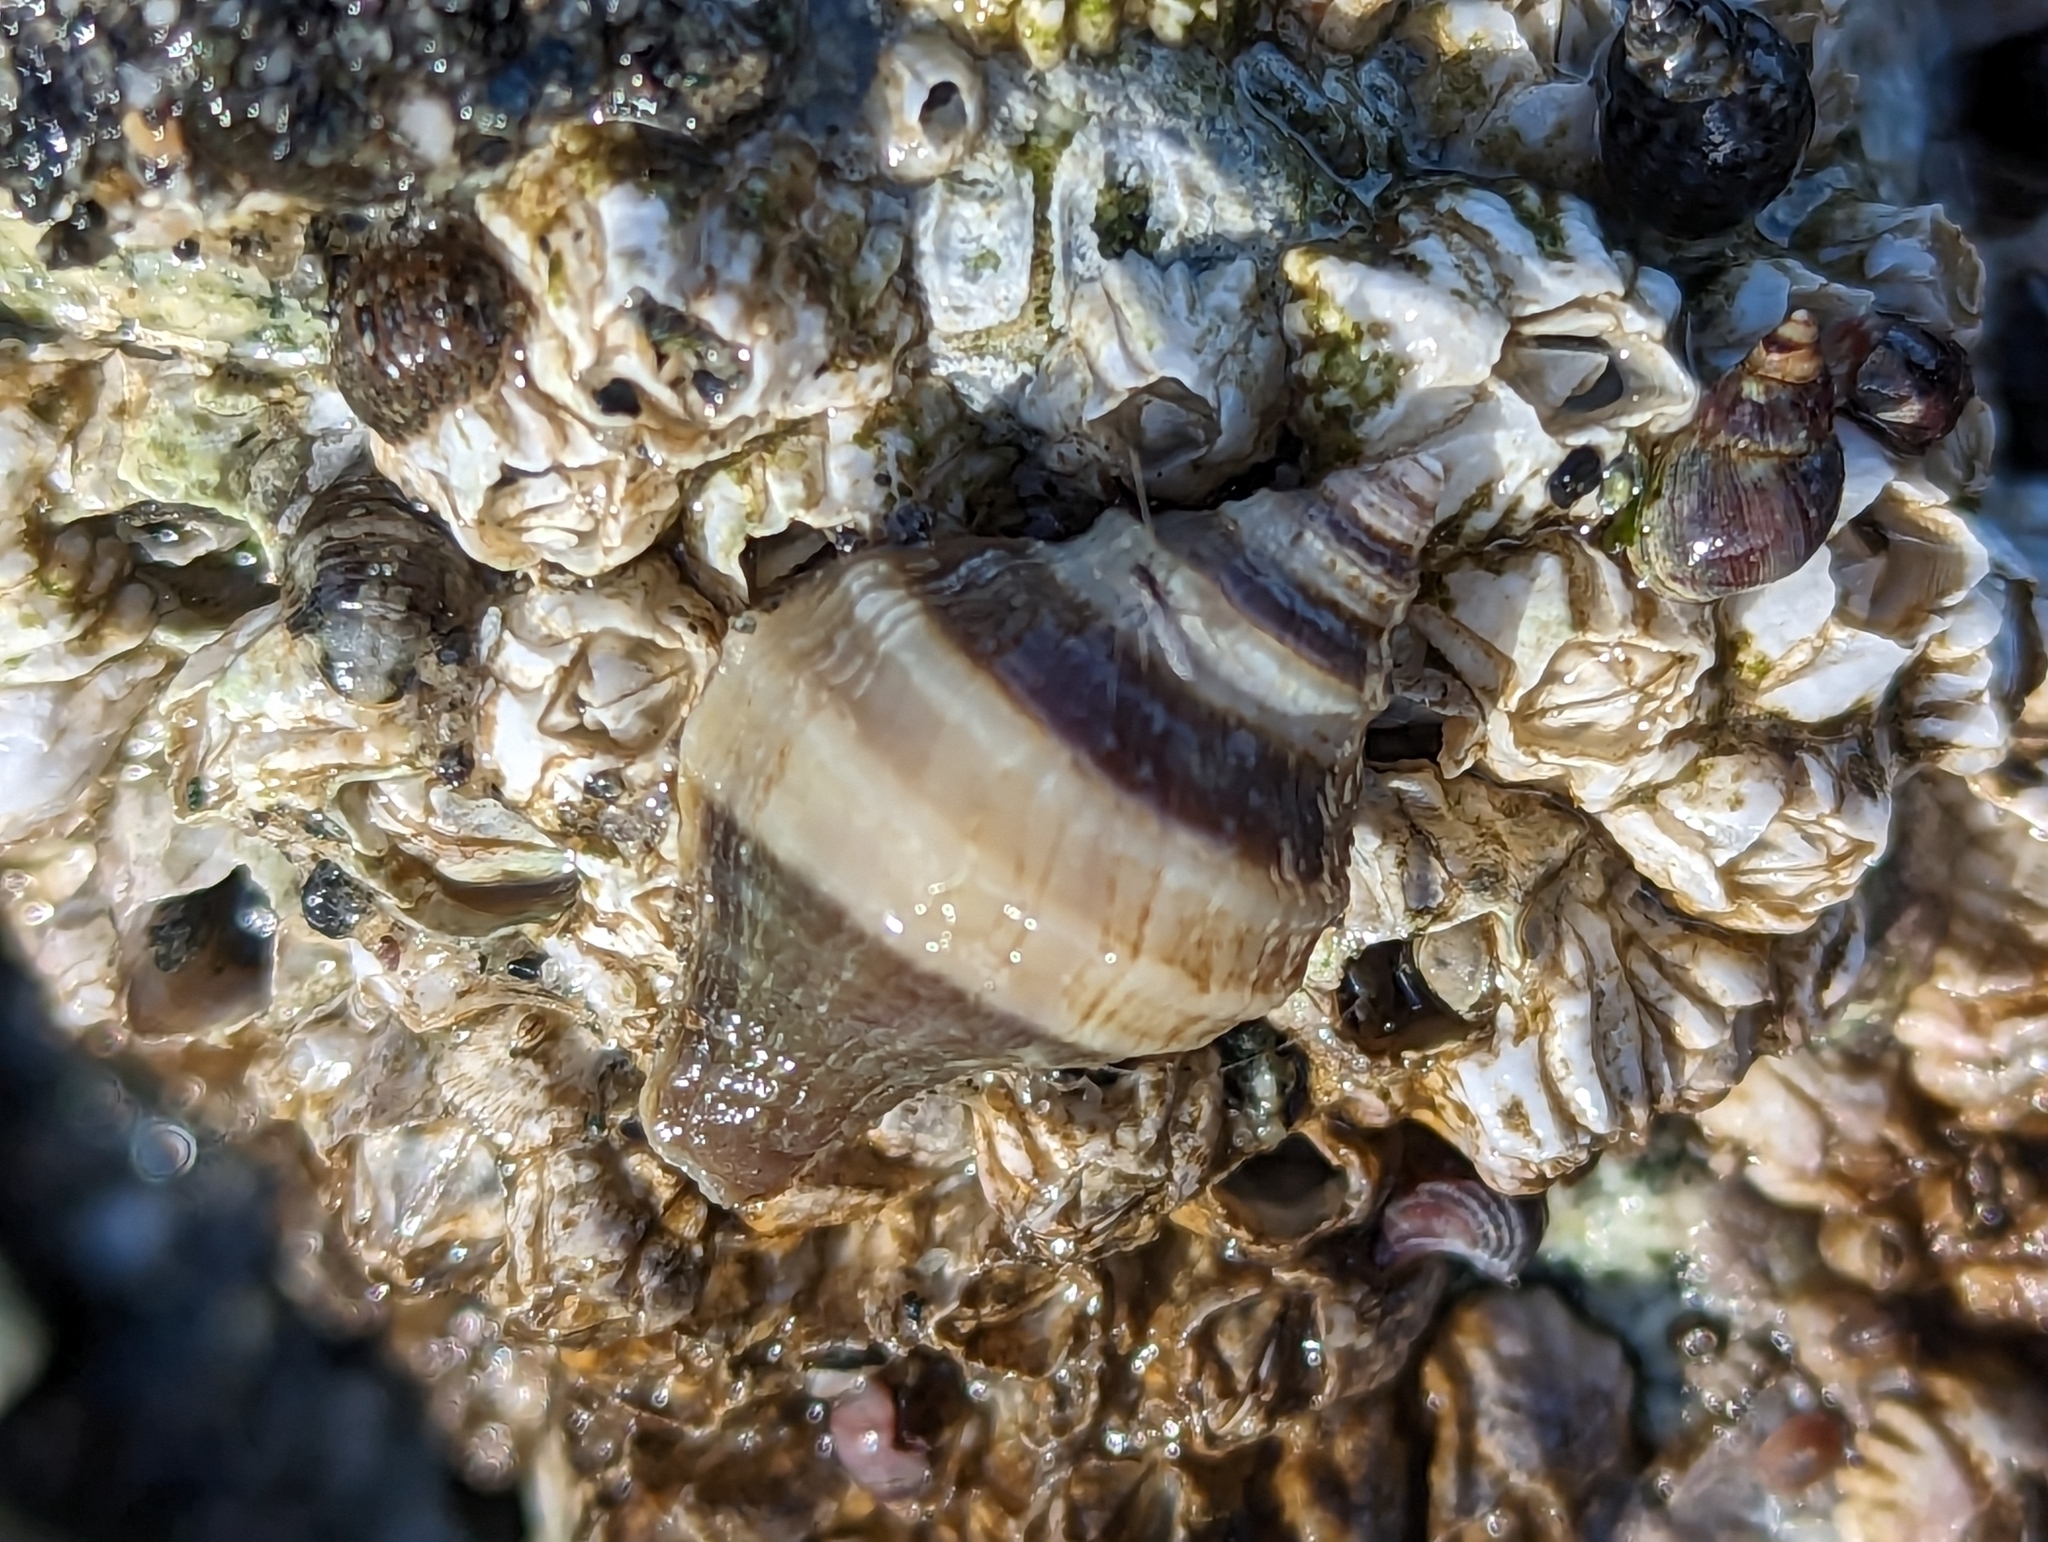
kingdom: Animalia
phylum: Mollusca
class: Gastropoda
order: Neogastropoda
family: Muricidae
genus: Nucella
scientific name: Nucella lamellosa
